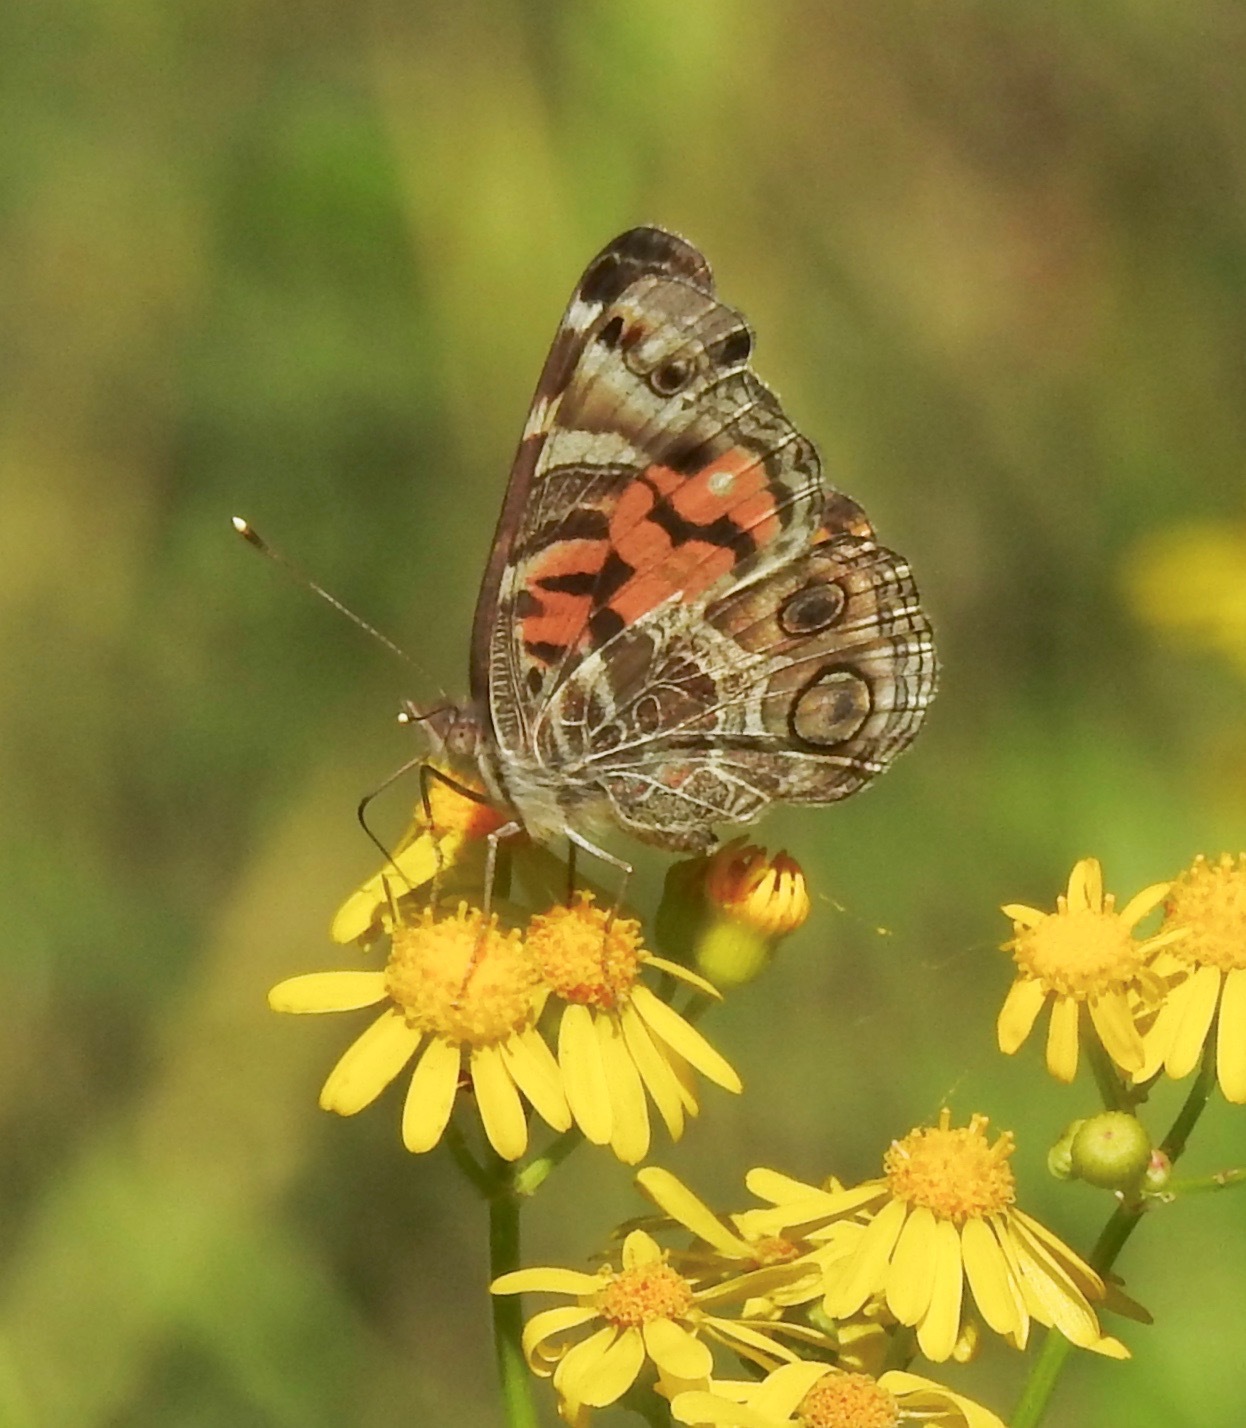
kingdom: Animalia
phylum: Arthropoda
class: Insecta
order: Lepidoptera
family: Nymphalidae
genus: Vanessa
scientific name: Vanessa virginiensis
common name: American lady
